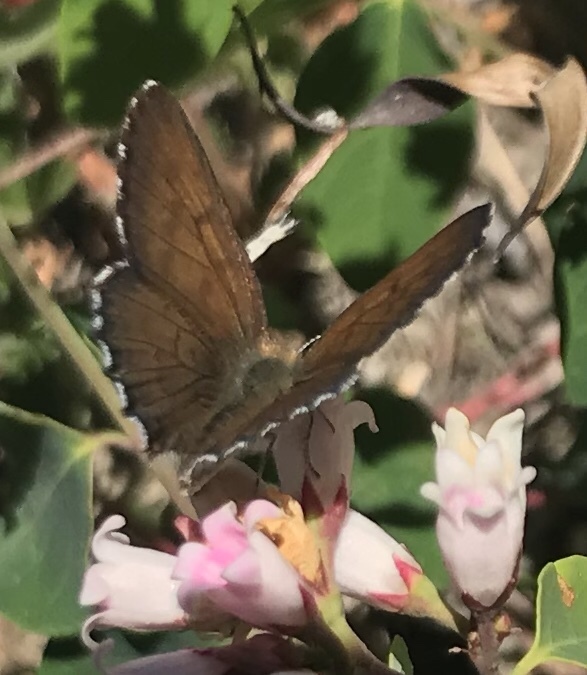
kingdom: Animalia
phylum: Arthropoda
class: Insecta
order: Lepidoptera
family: Lycaenidae
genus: Tharsalea
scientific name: Tharsalea mariposa
